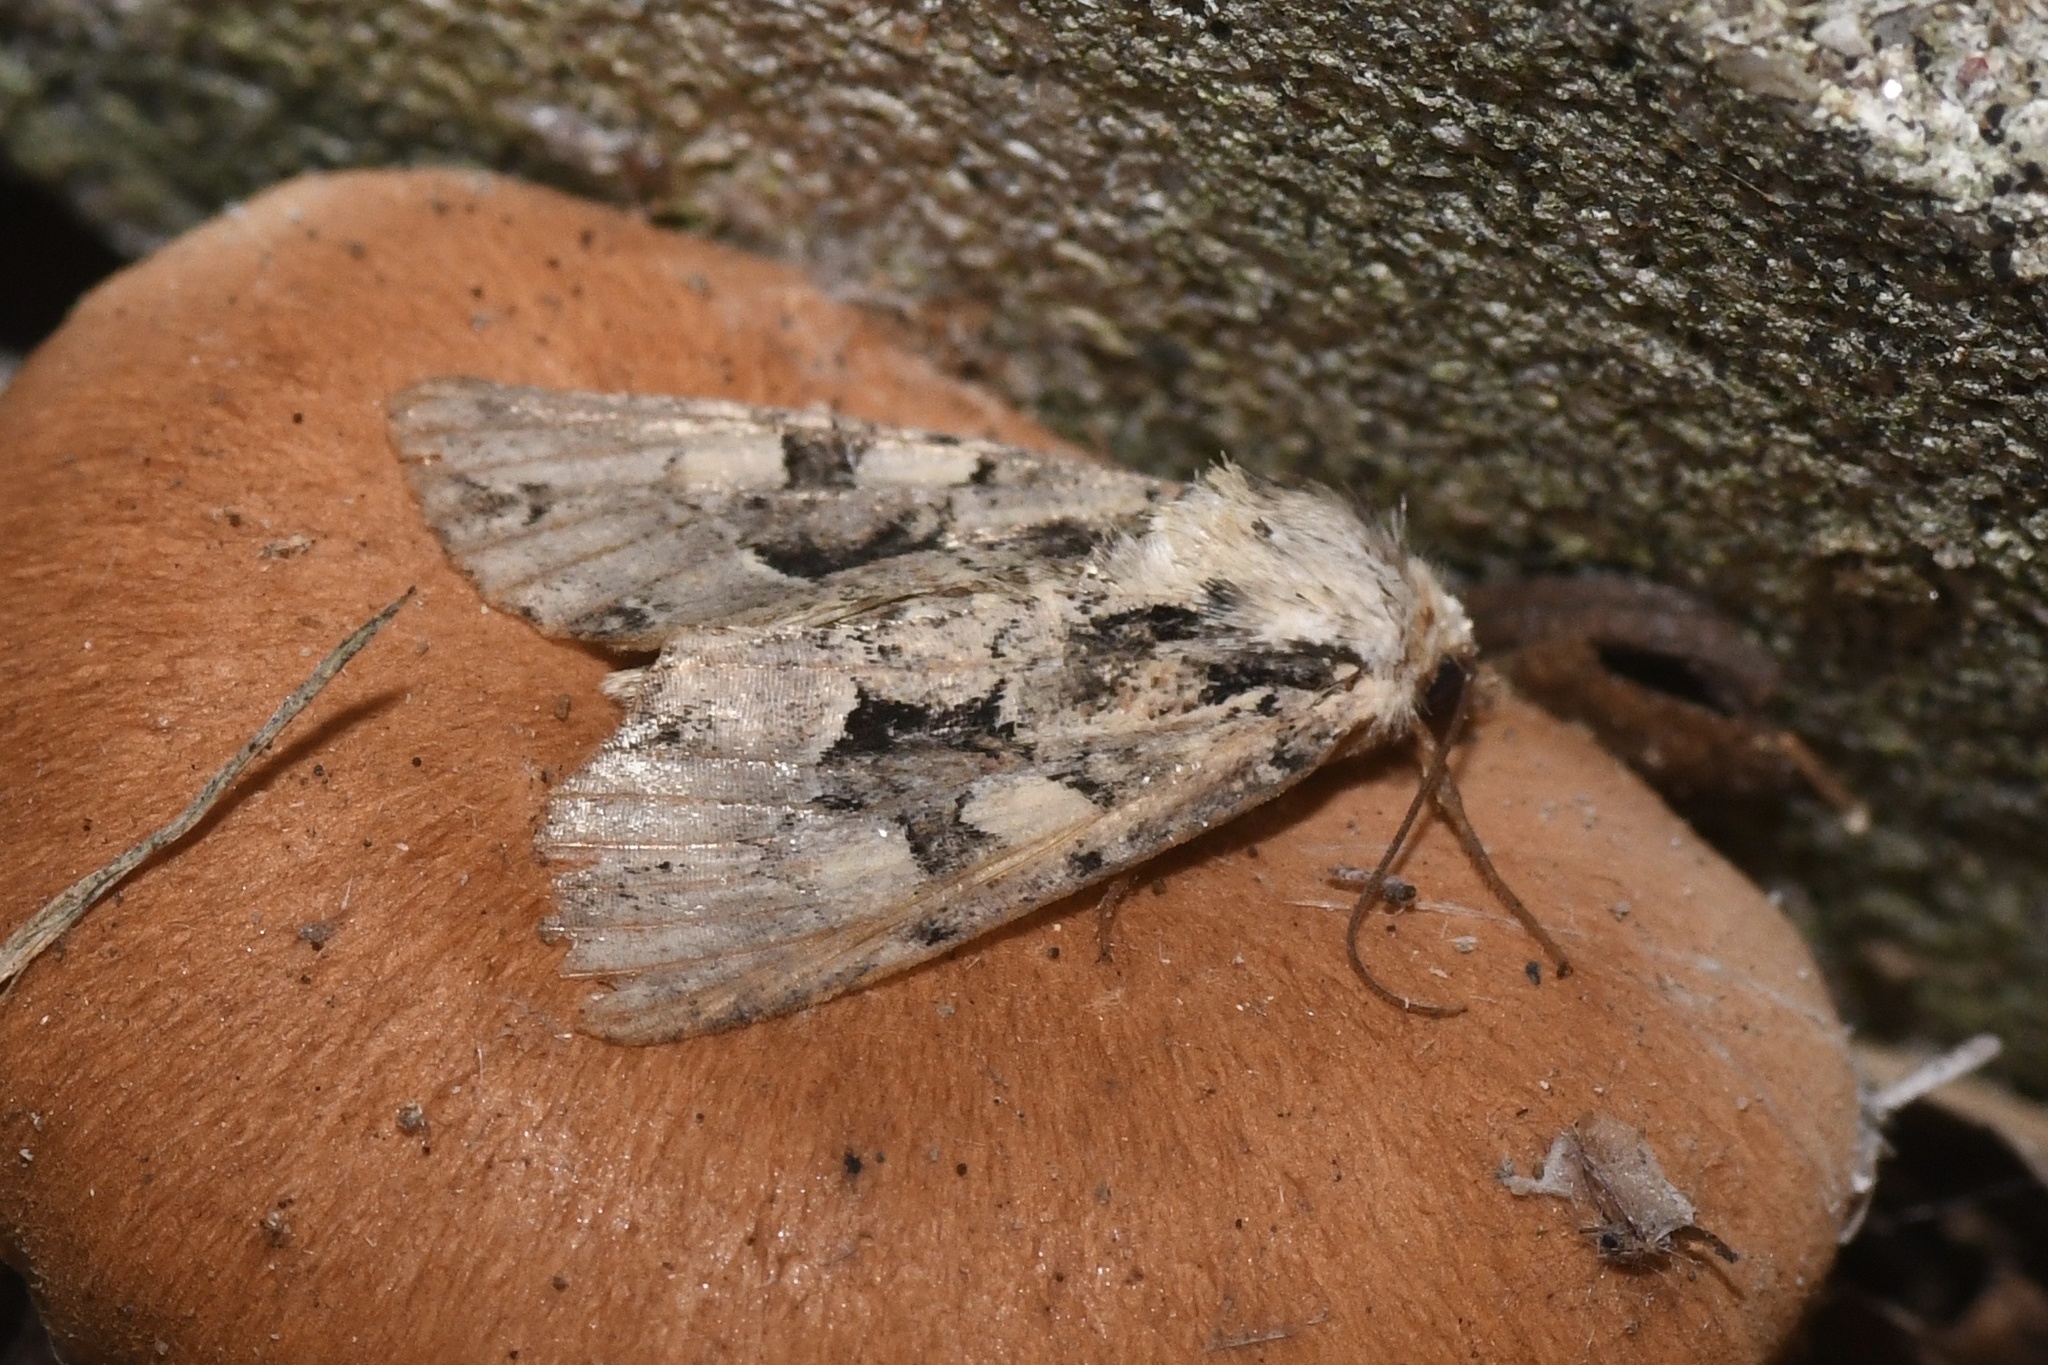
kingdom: Animalia
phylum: Arthropoda
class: Insecta
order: Lepidoptera
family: Noctuidae
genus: Oligia
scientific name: Oligia modica
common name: Black-banded brocade
